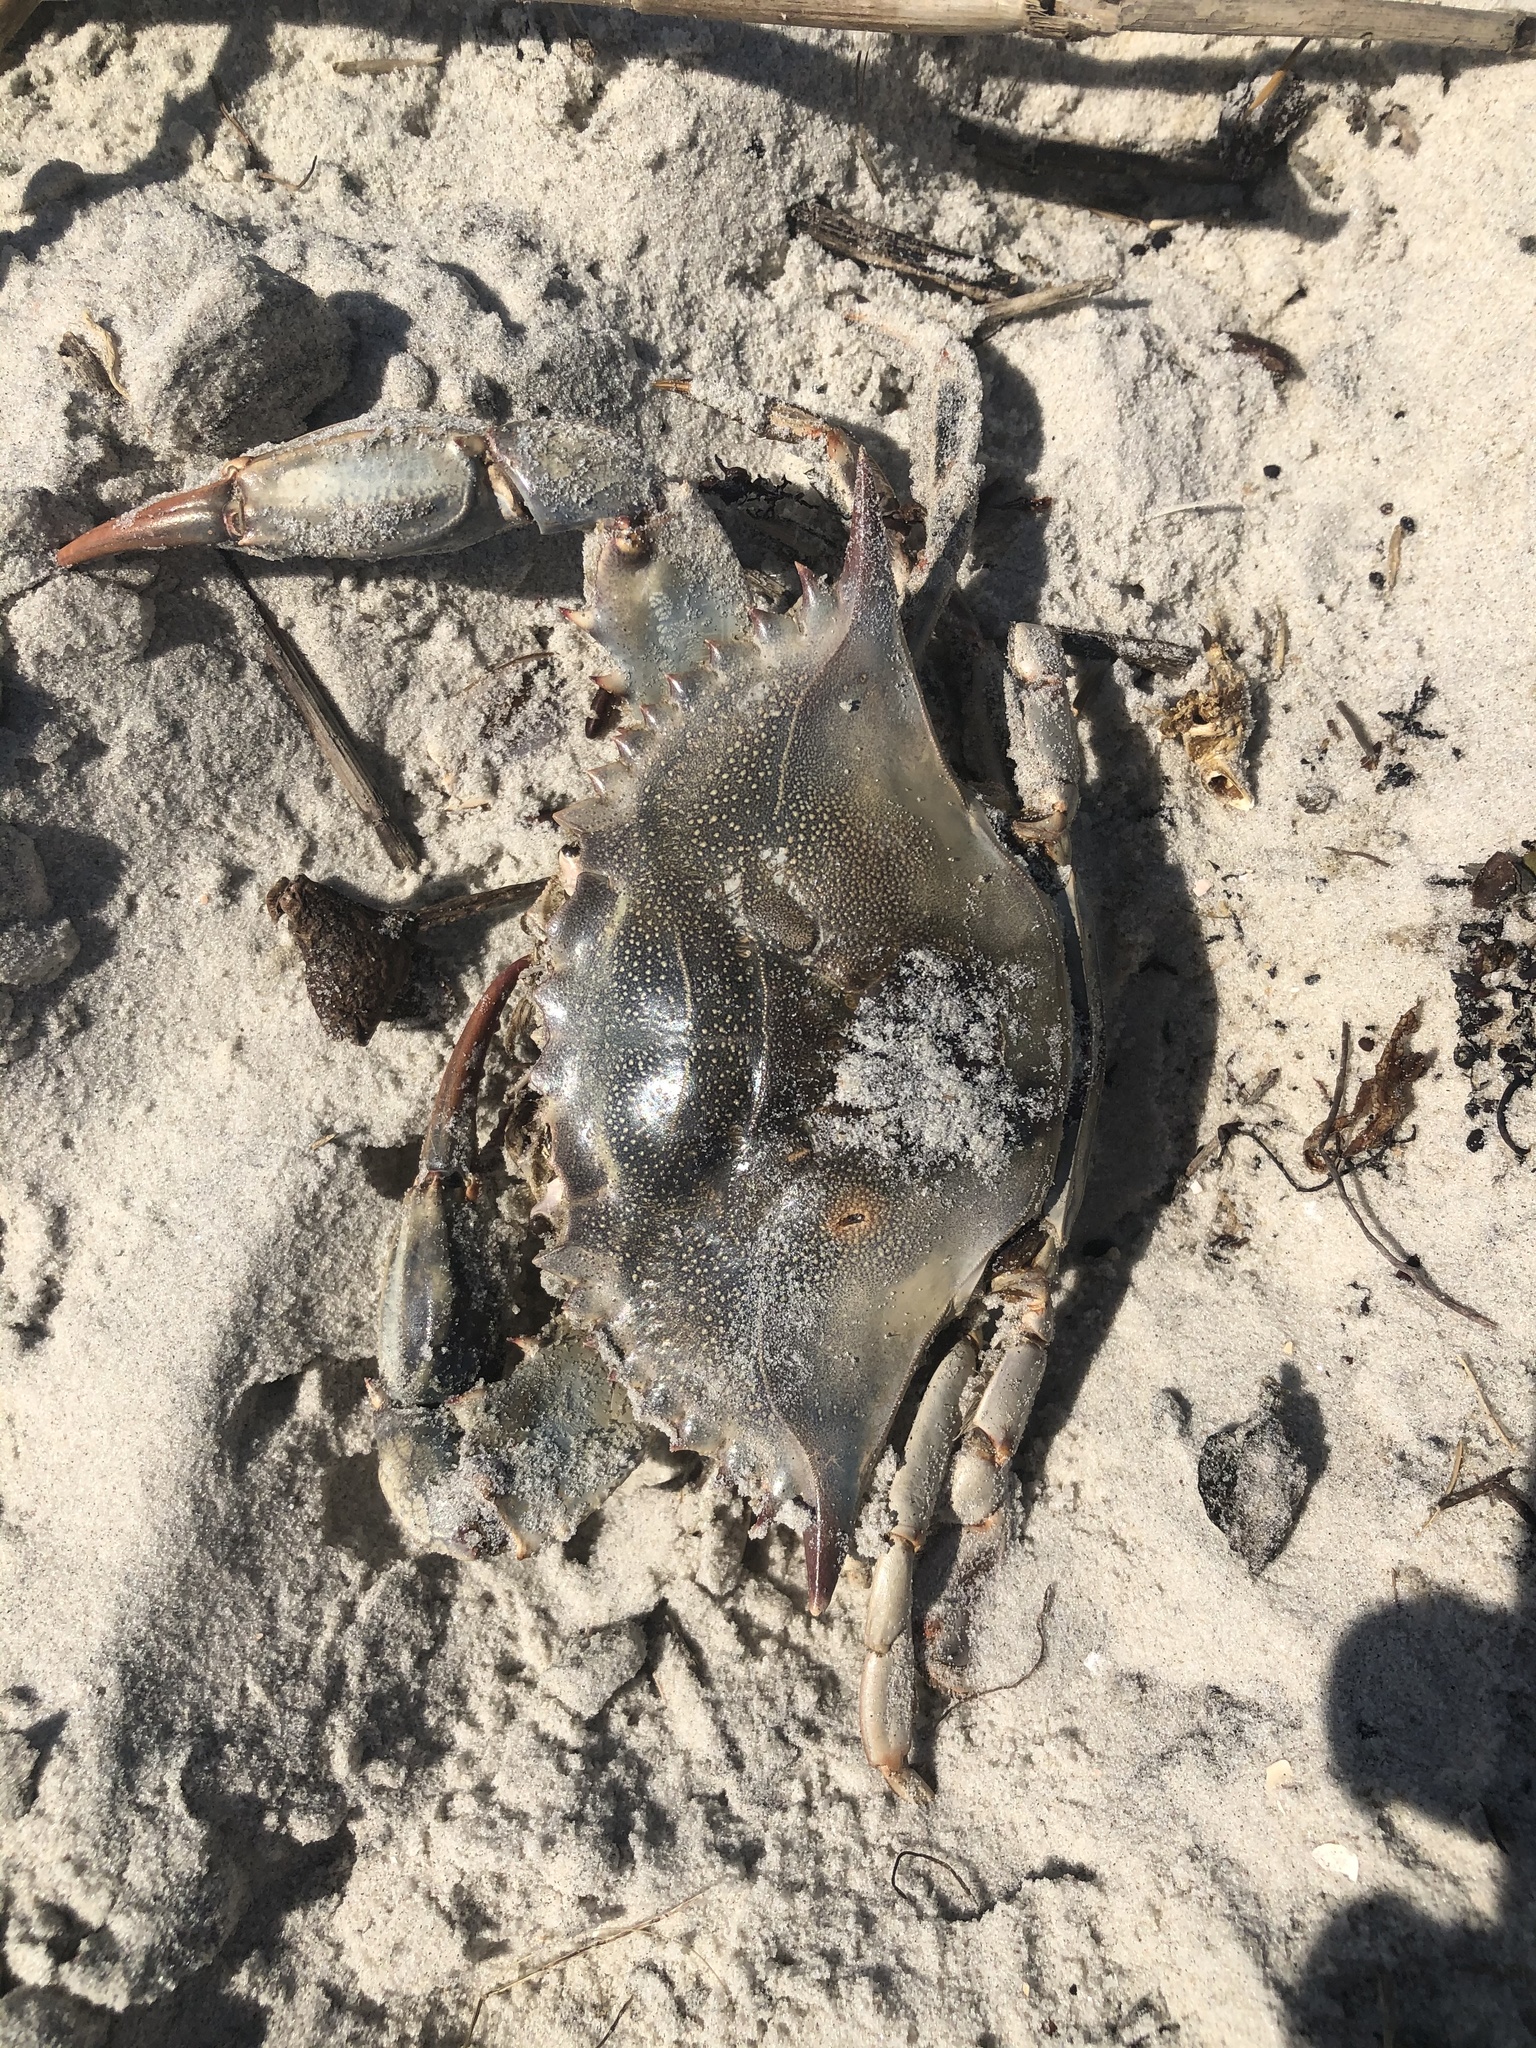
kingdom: Animalia
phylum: Arthropoda
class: Malacostraca
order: Decapoda
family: Portunidae
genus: Callinectes
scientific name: Callinectes sapidus
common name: Blue crab
